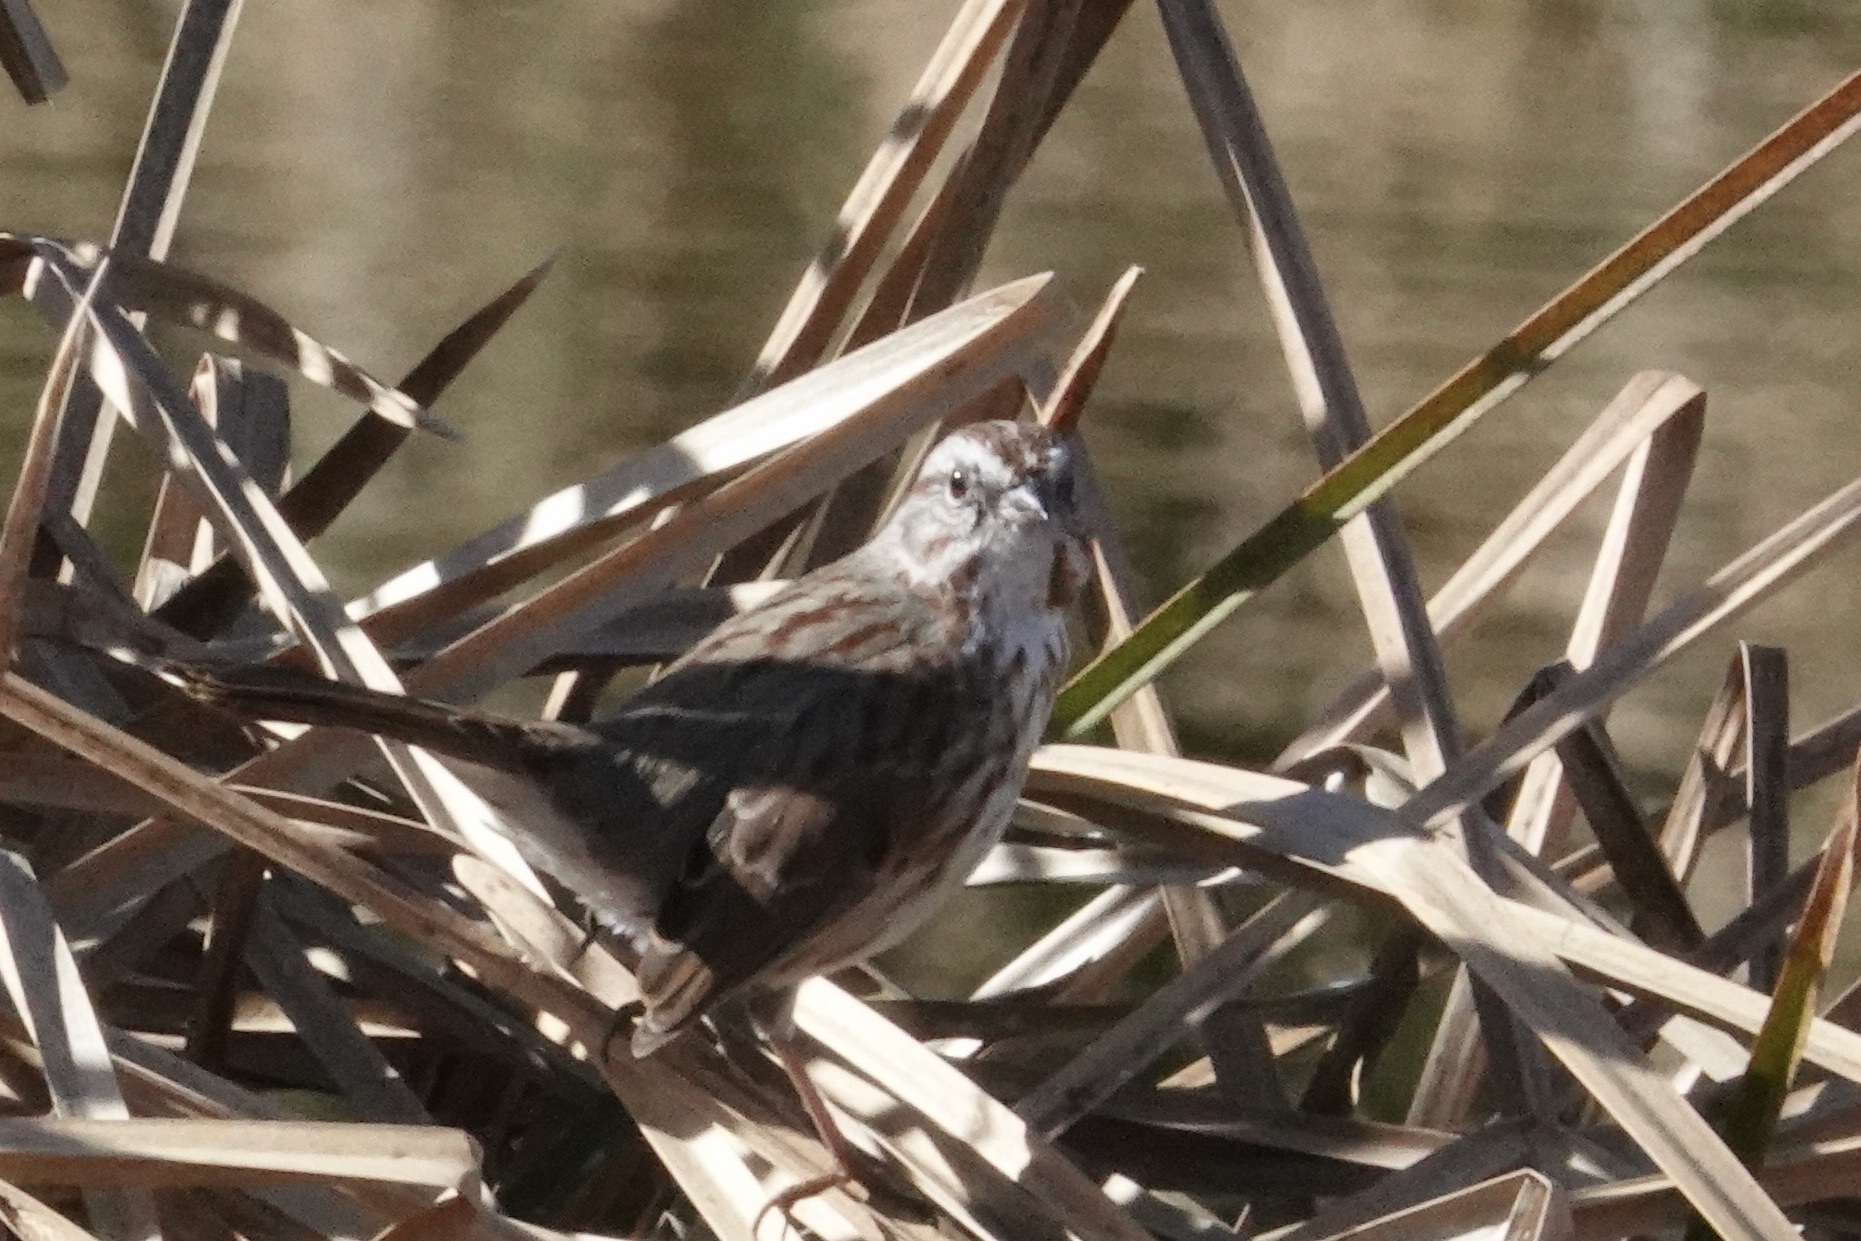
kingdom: Animalia
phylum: Chordata
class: Aves
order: Passeriformes
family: Passerellidae
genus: Melospiza
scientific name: Melospiza melodia
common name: Song sparrow
